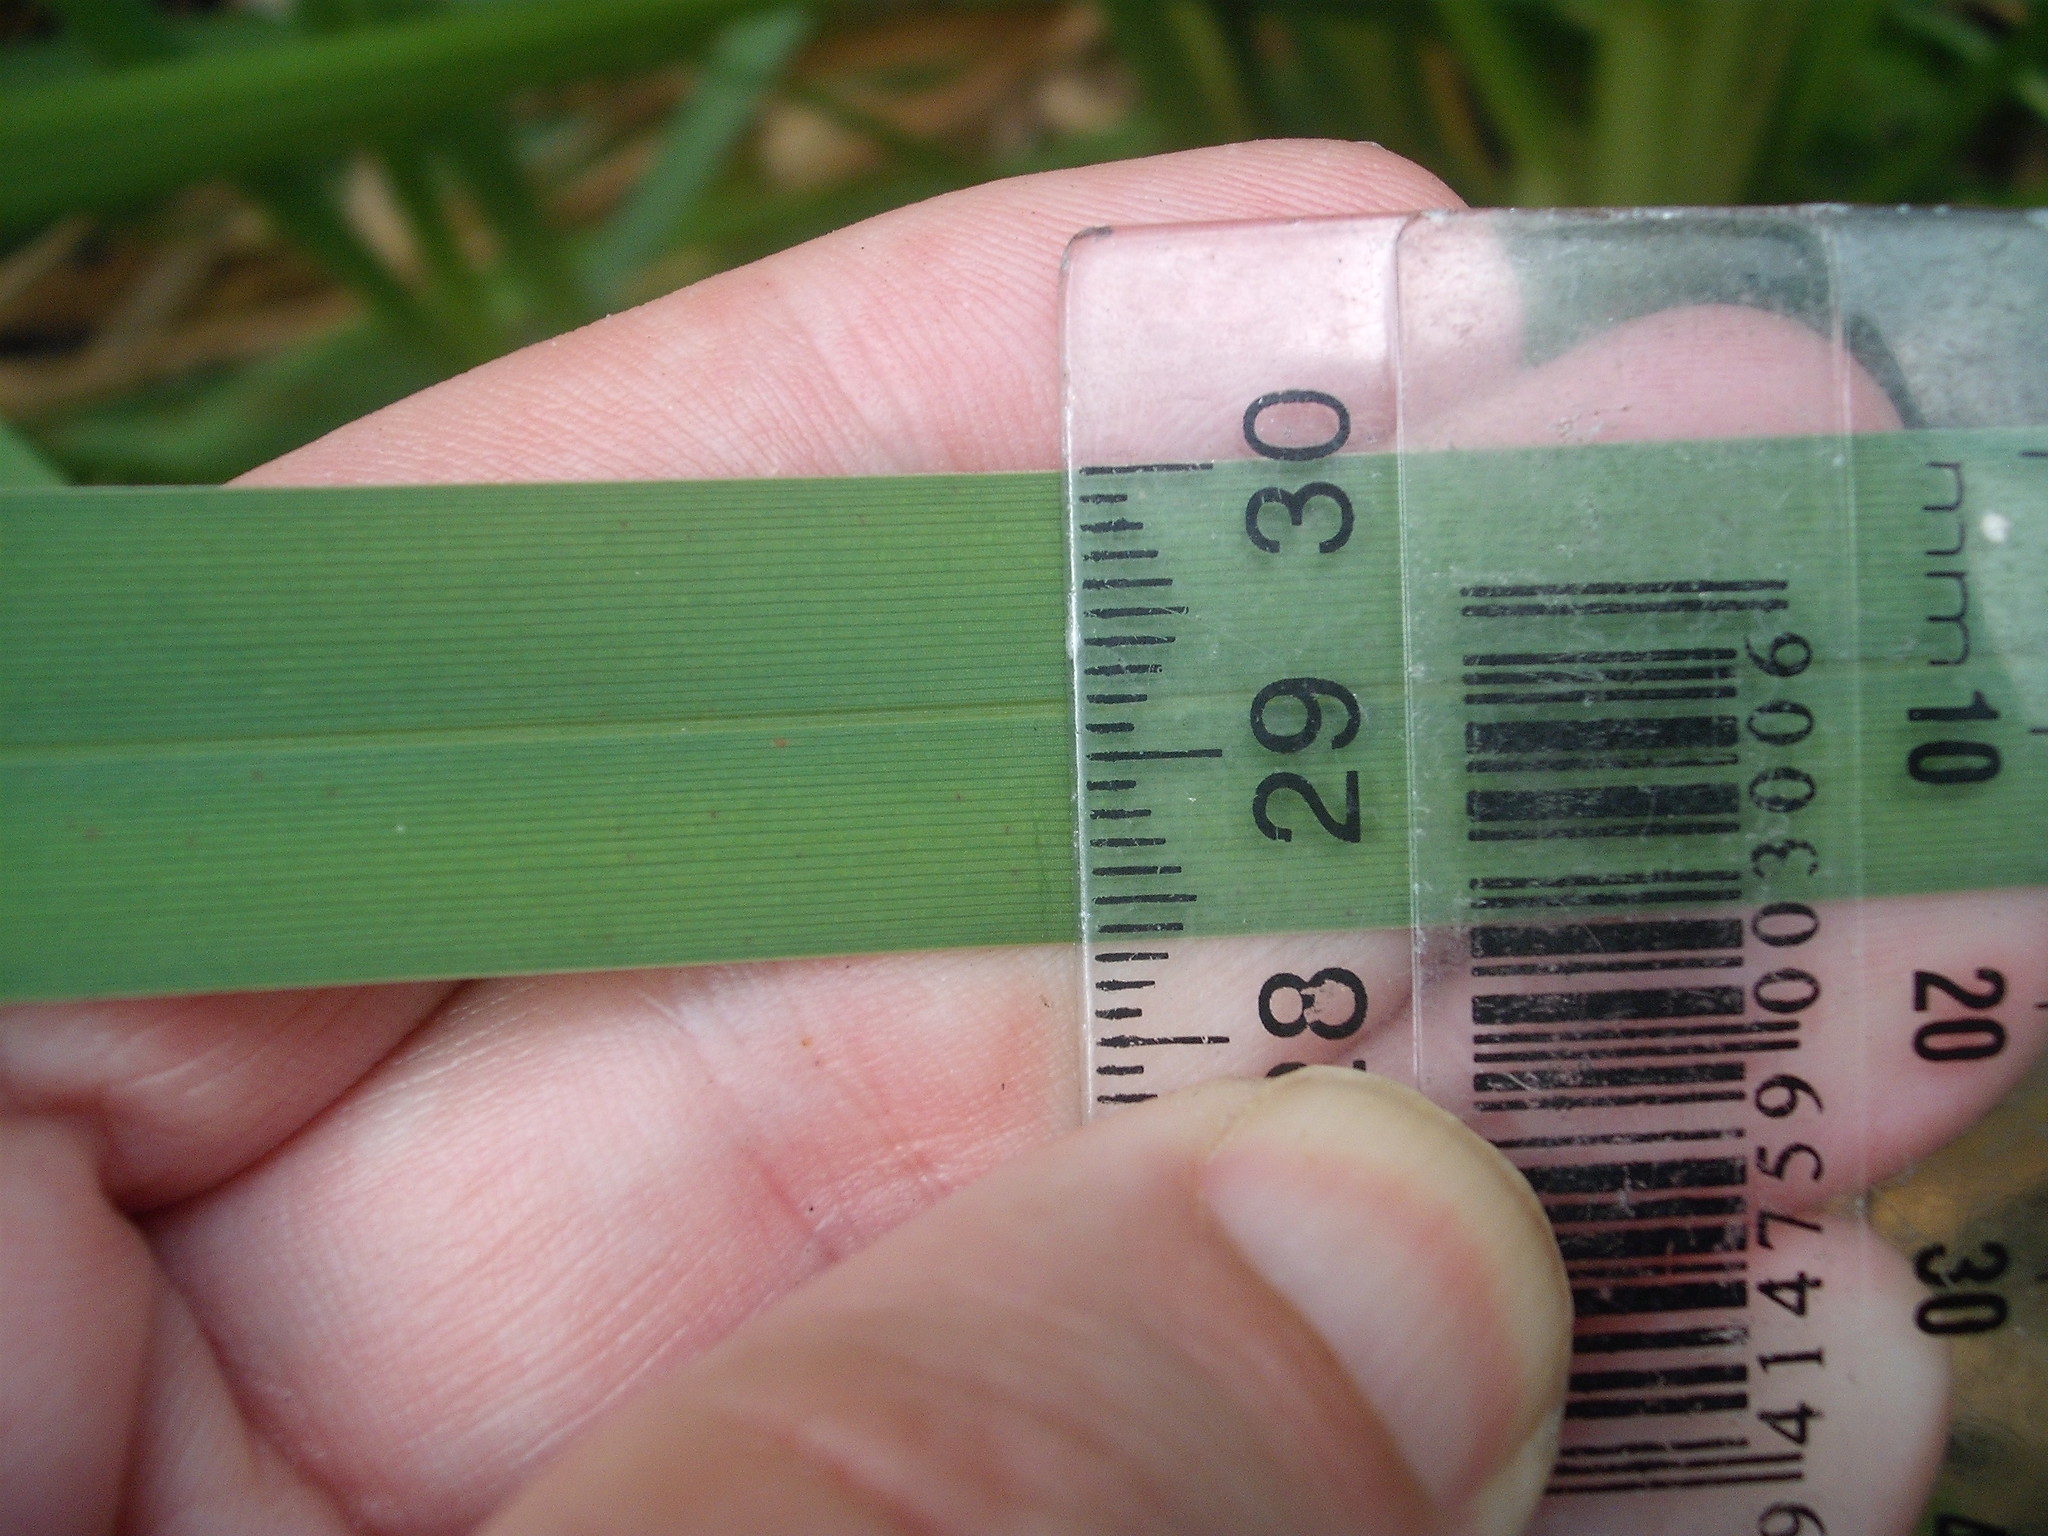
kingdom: Plantae
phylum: Tracheophyta
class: Liliopsida
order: Poales
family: Poaceae
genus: Glyceria
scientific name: Glyceria maxima
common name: Reed mannagrass
